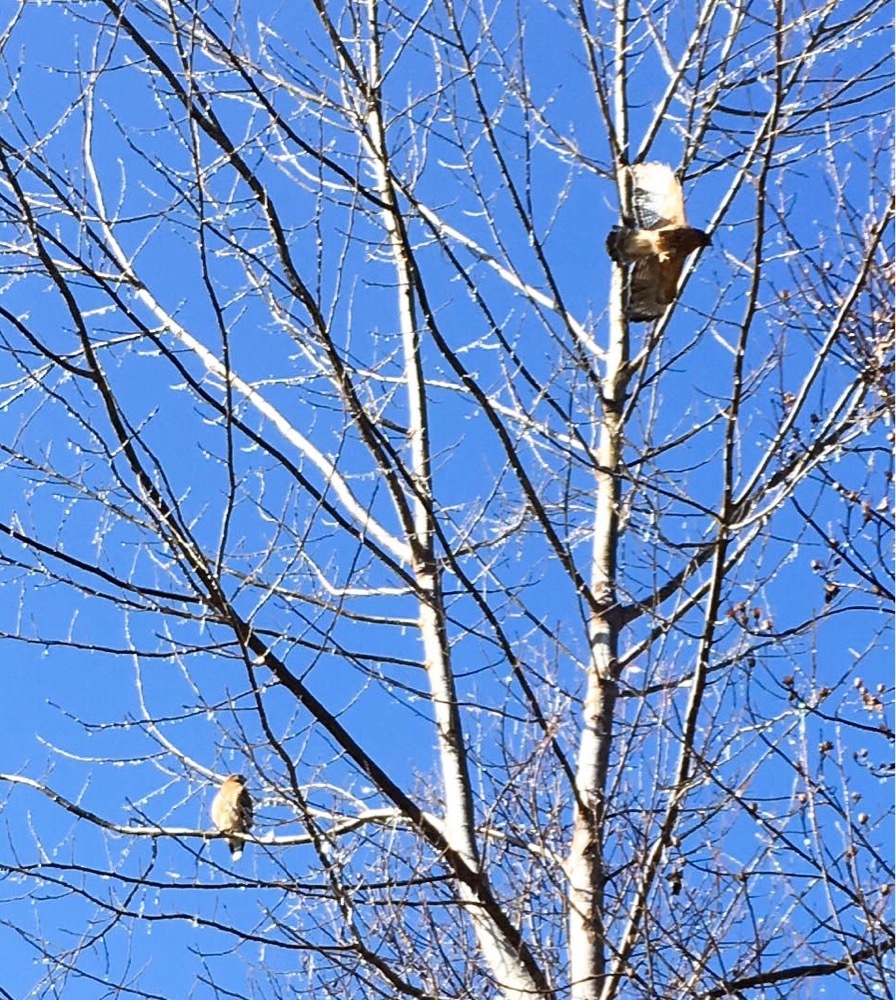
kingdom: Animalia
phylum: Chordata
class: Aves
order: Accipitriformes
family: Accipitridae
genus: Buteo
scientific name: Buteo lineatus
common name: Red-shouldered hawk
